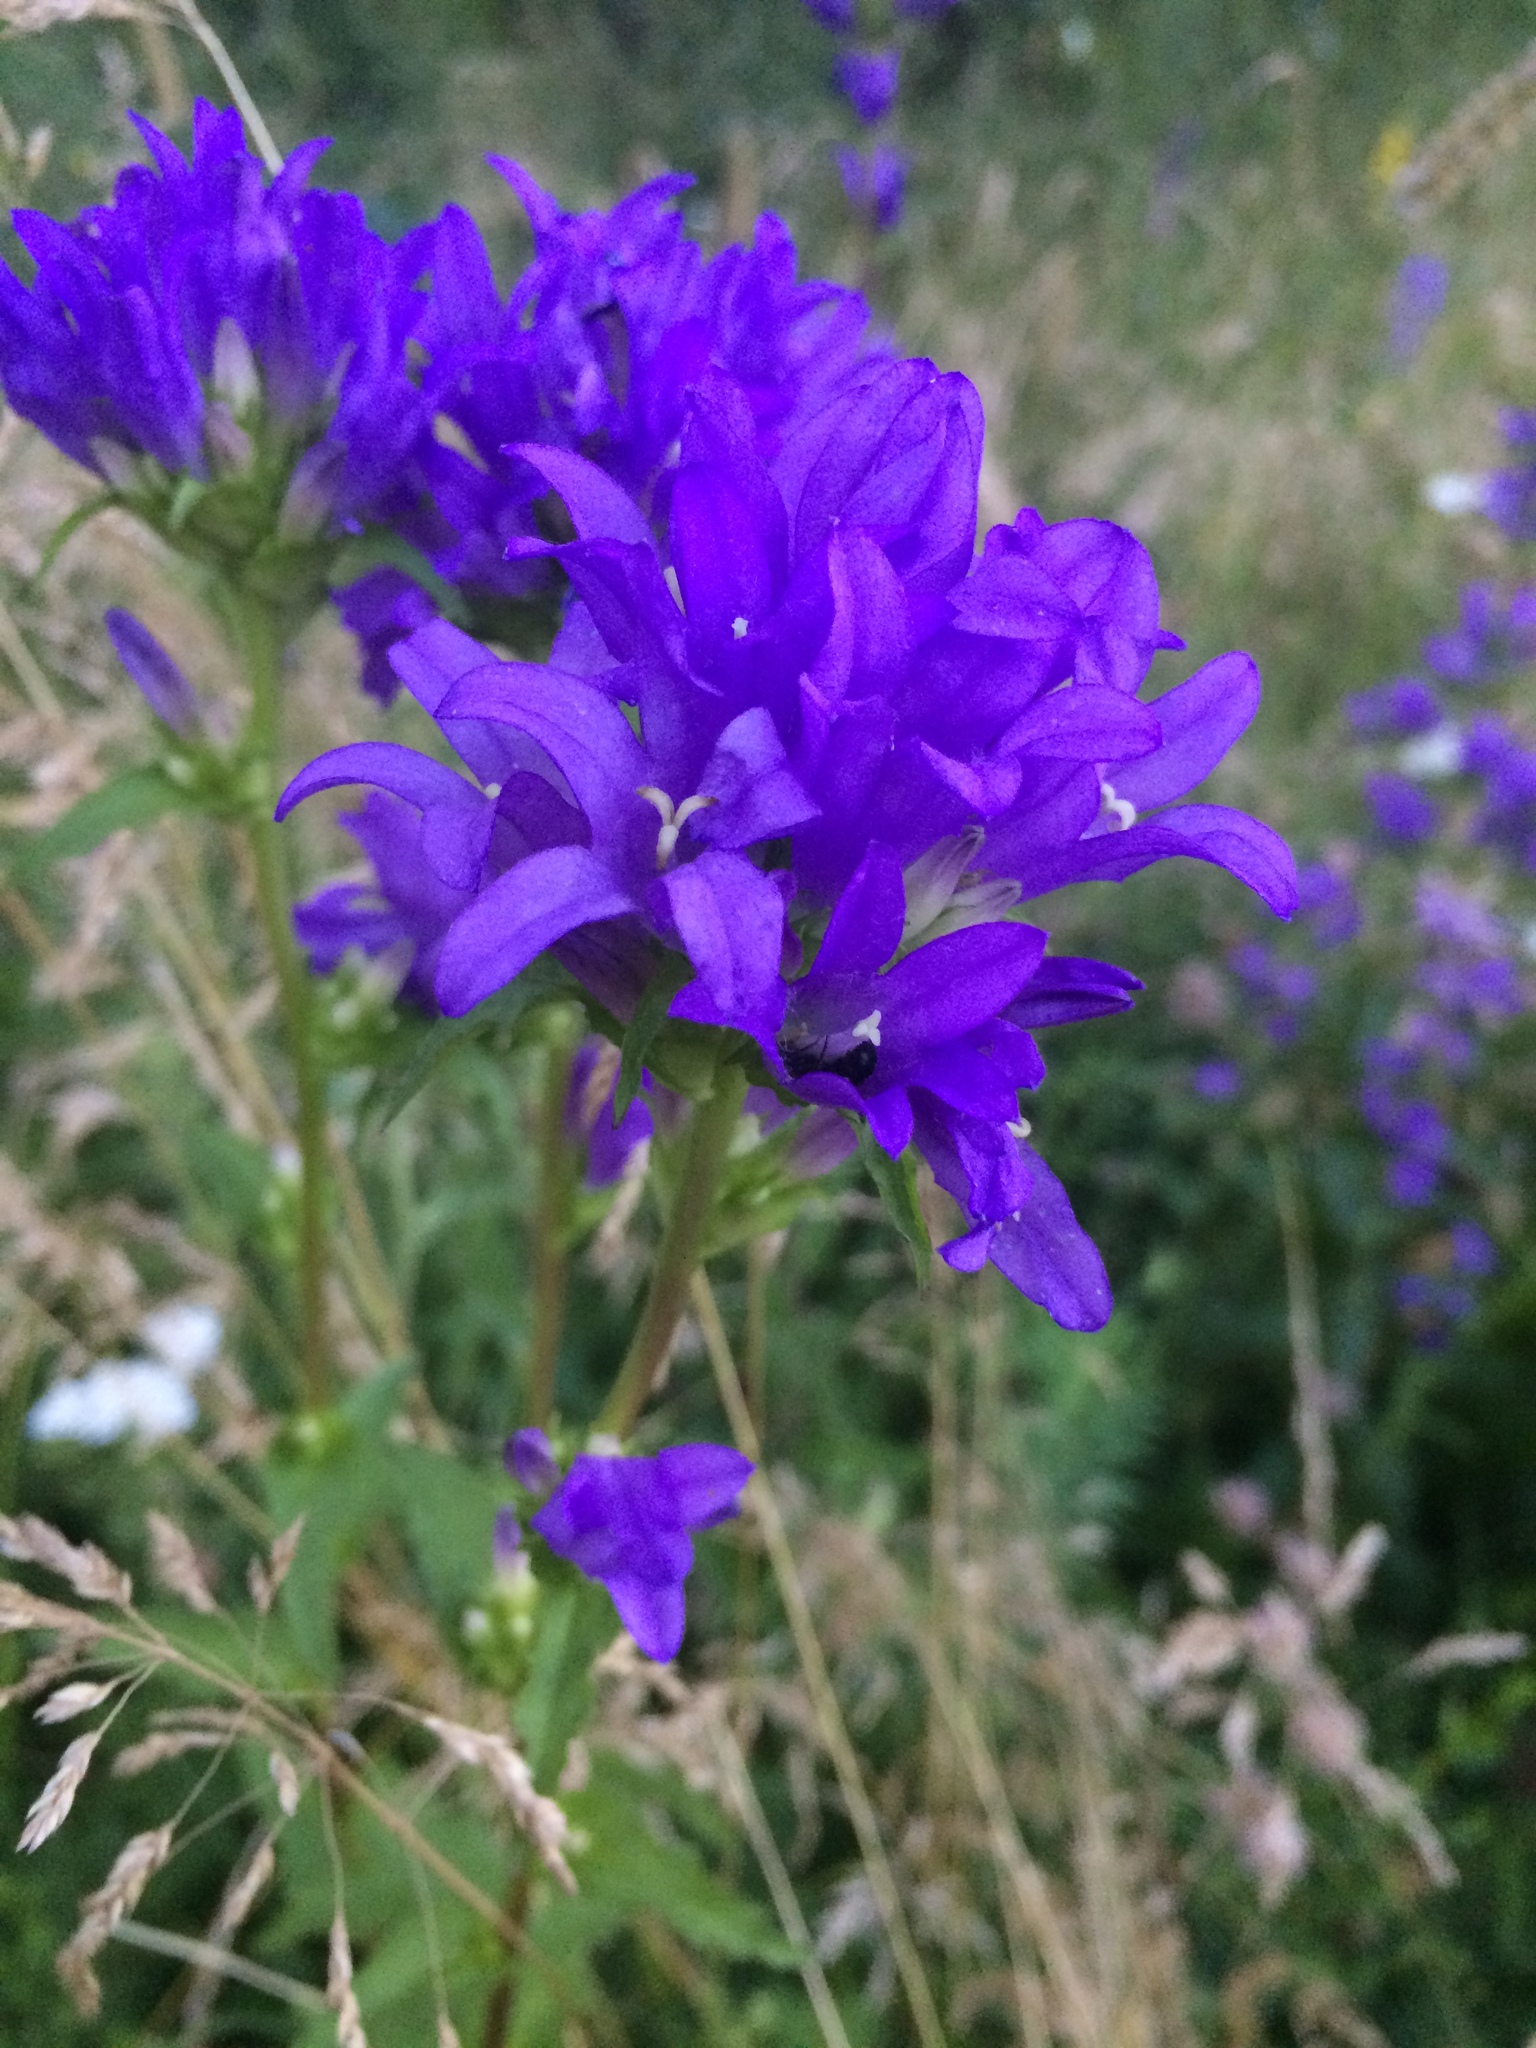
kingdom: Plantae
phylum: Tracheophyta
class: Magnoliopsida
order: Asterales
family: Campanulaceae
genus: Campanula
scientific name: Campanula glomerata
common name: Clustered bellflower
